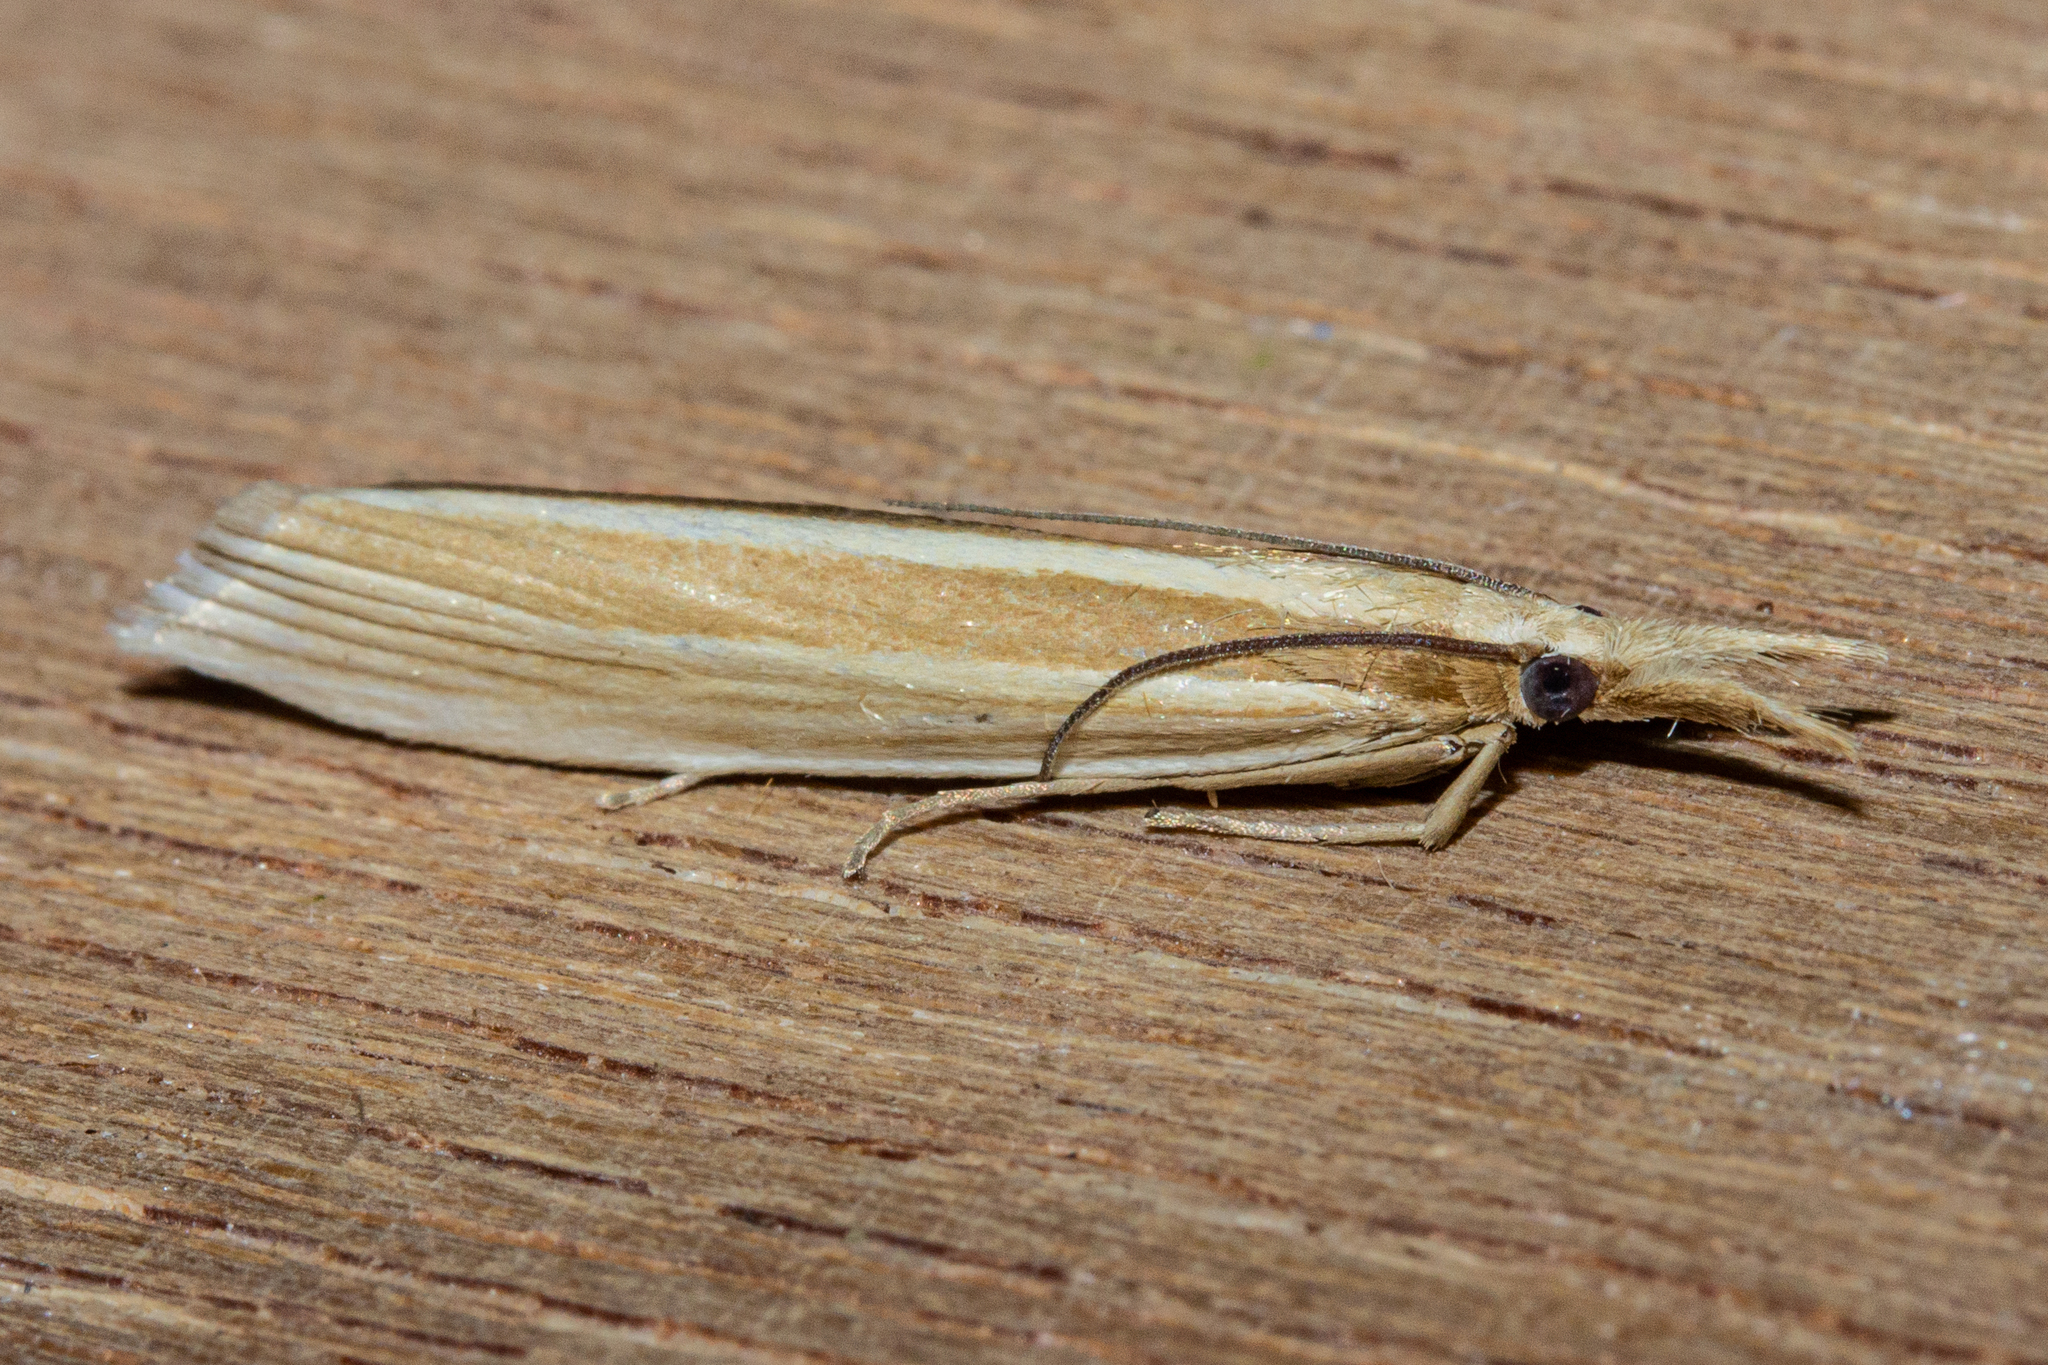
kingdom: Animalia
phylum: Arthropoda
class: Insecta
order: Lepidoptera
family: Crambidae
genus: Orocrambus
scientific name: Orocrambus angustipennis
